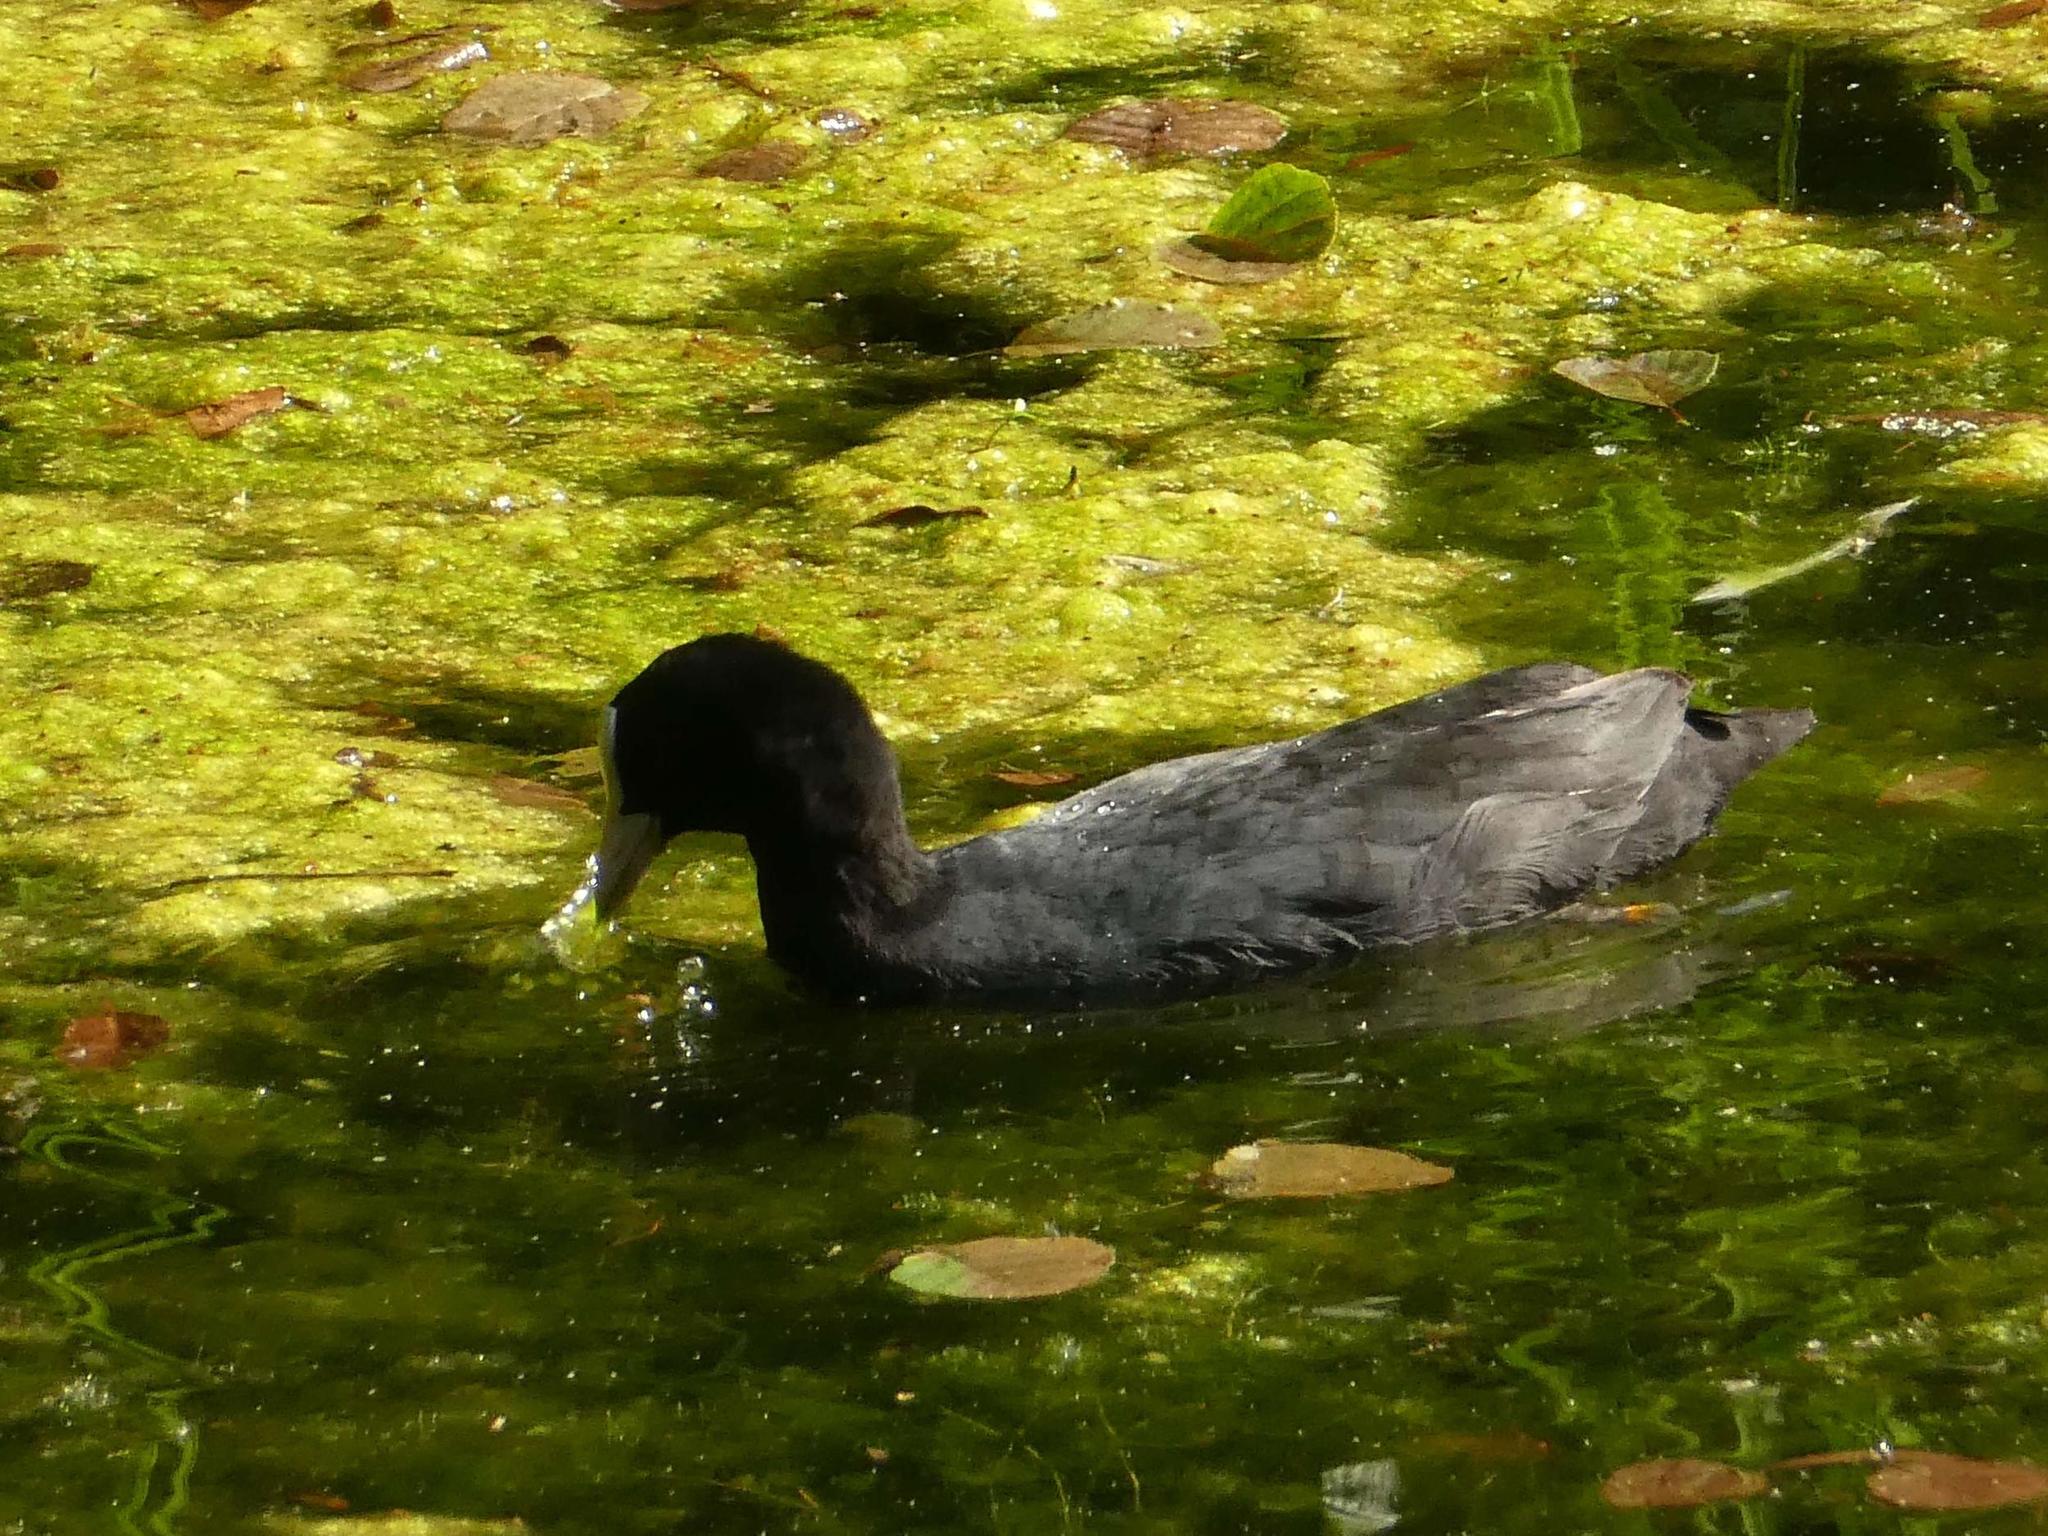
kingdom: Animalia
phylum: Chordata
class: Aves
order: Gruiformes
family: Rallidae
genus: Fulica
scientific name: Fulica atra
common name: Eurasian coot
